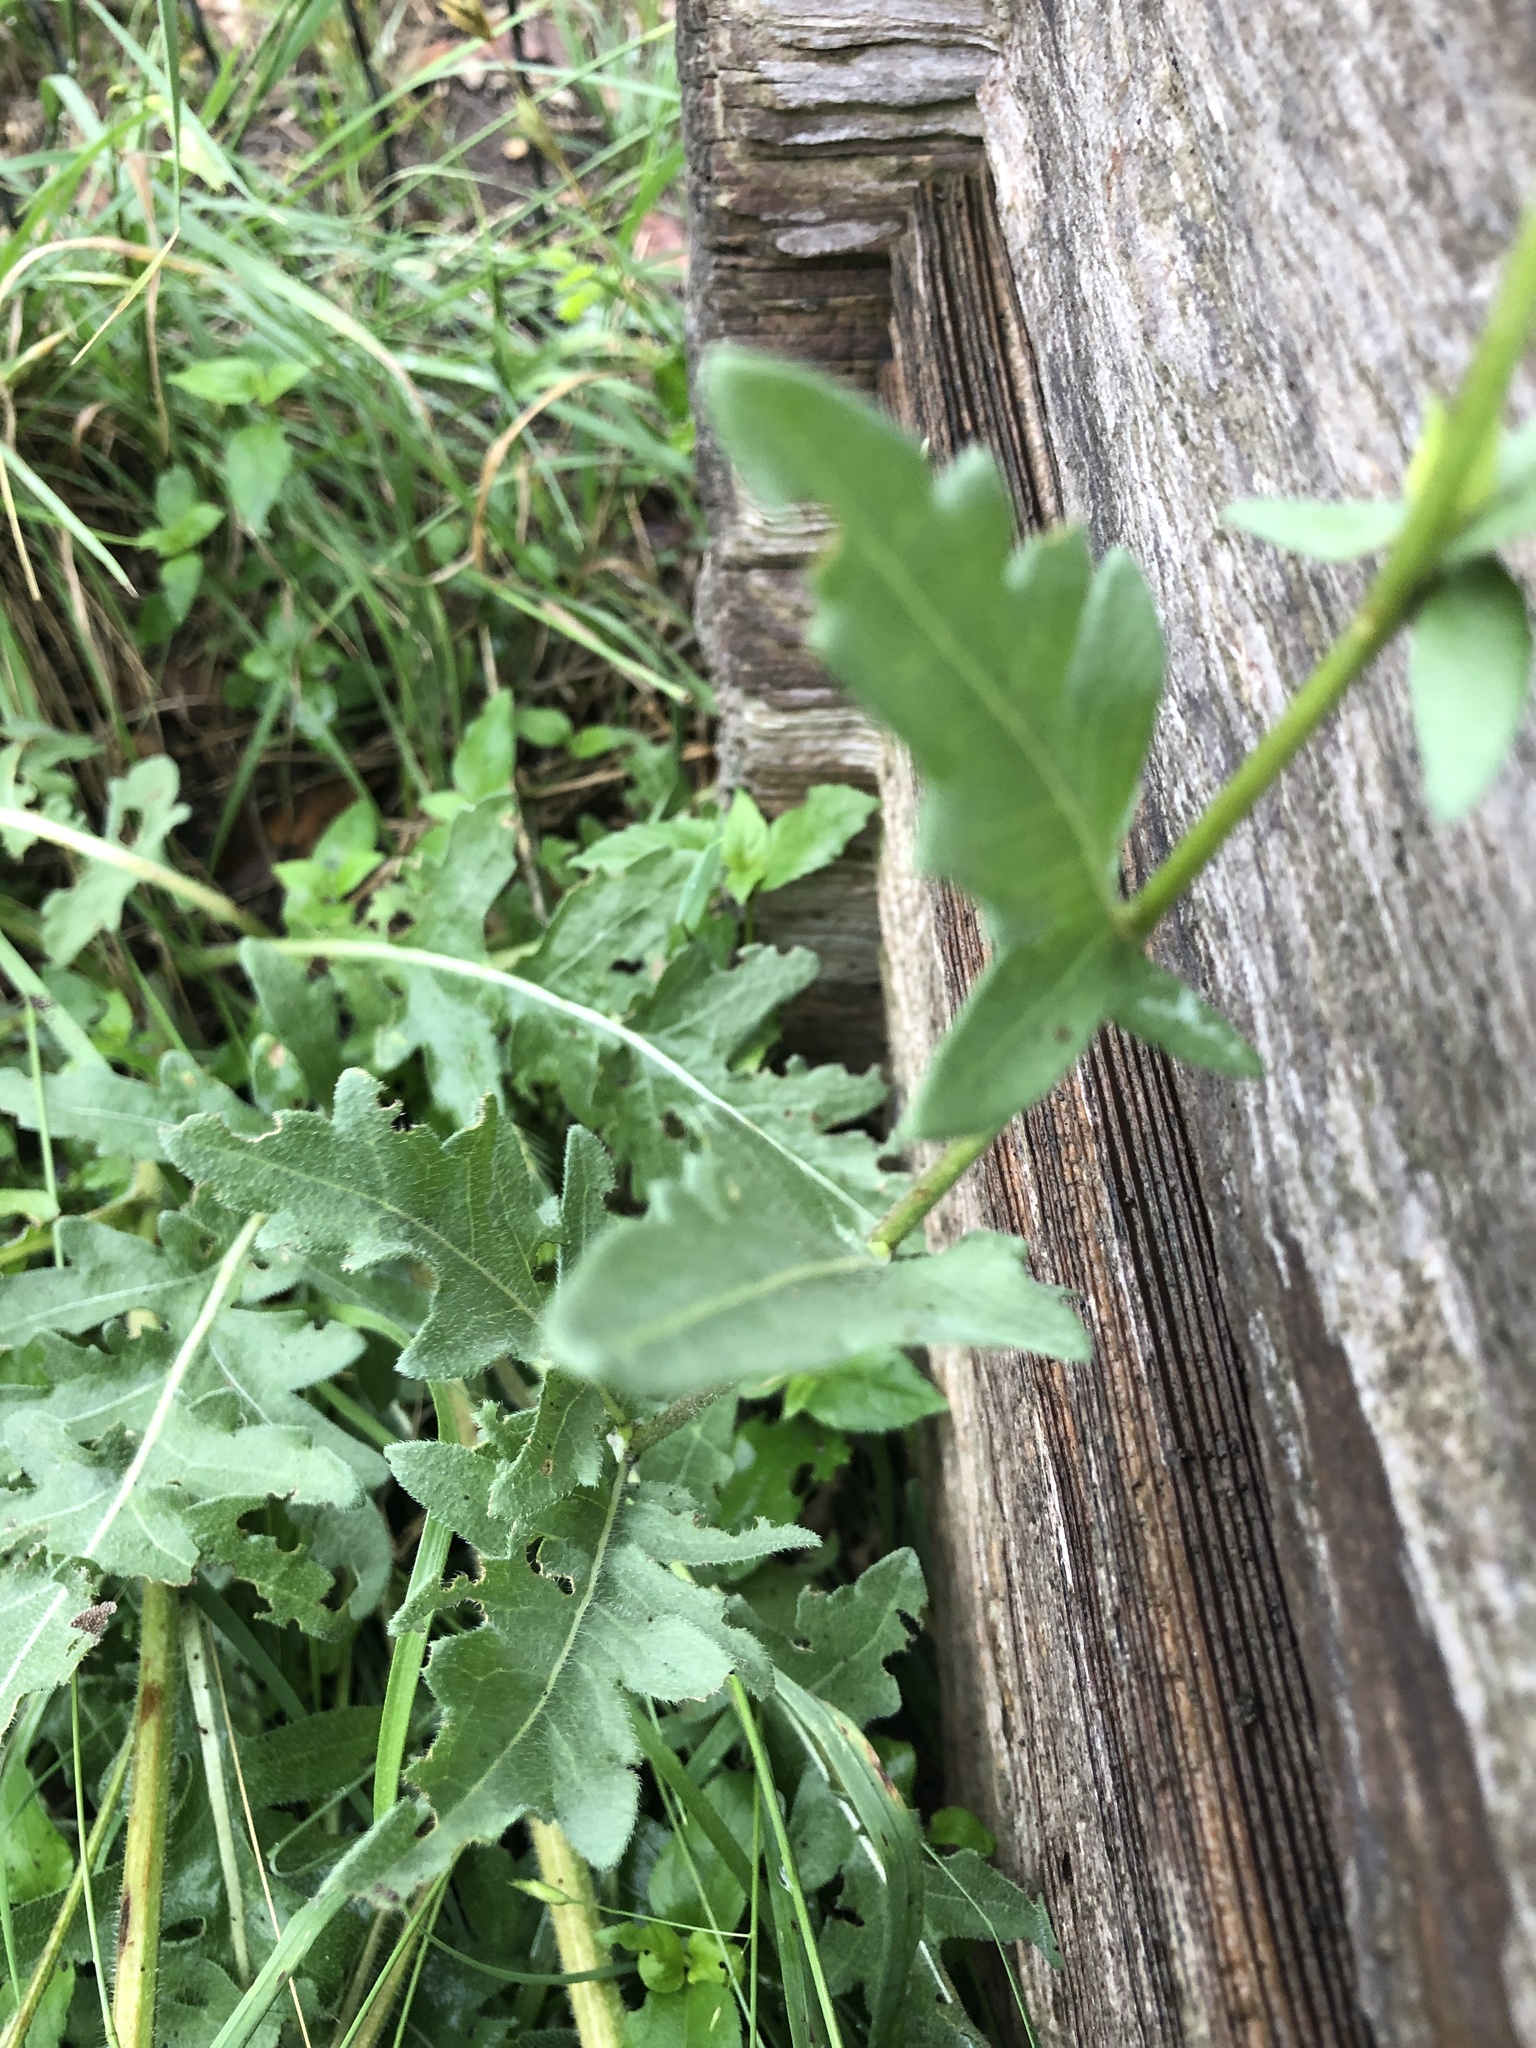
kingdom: Plantae
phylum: Tracheophyta
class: Magnoliopsida
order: Asterales
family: Asteraceae
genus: Engelmannia
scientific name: Engelmannia peristenia
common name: Engelmann's daisy
